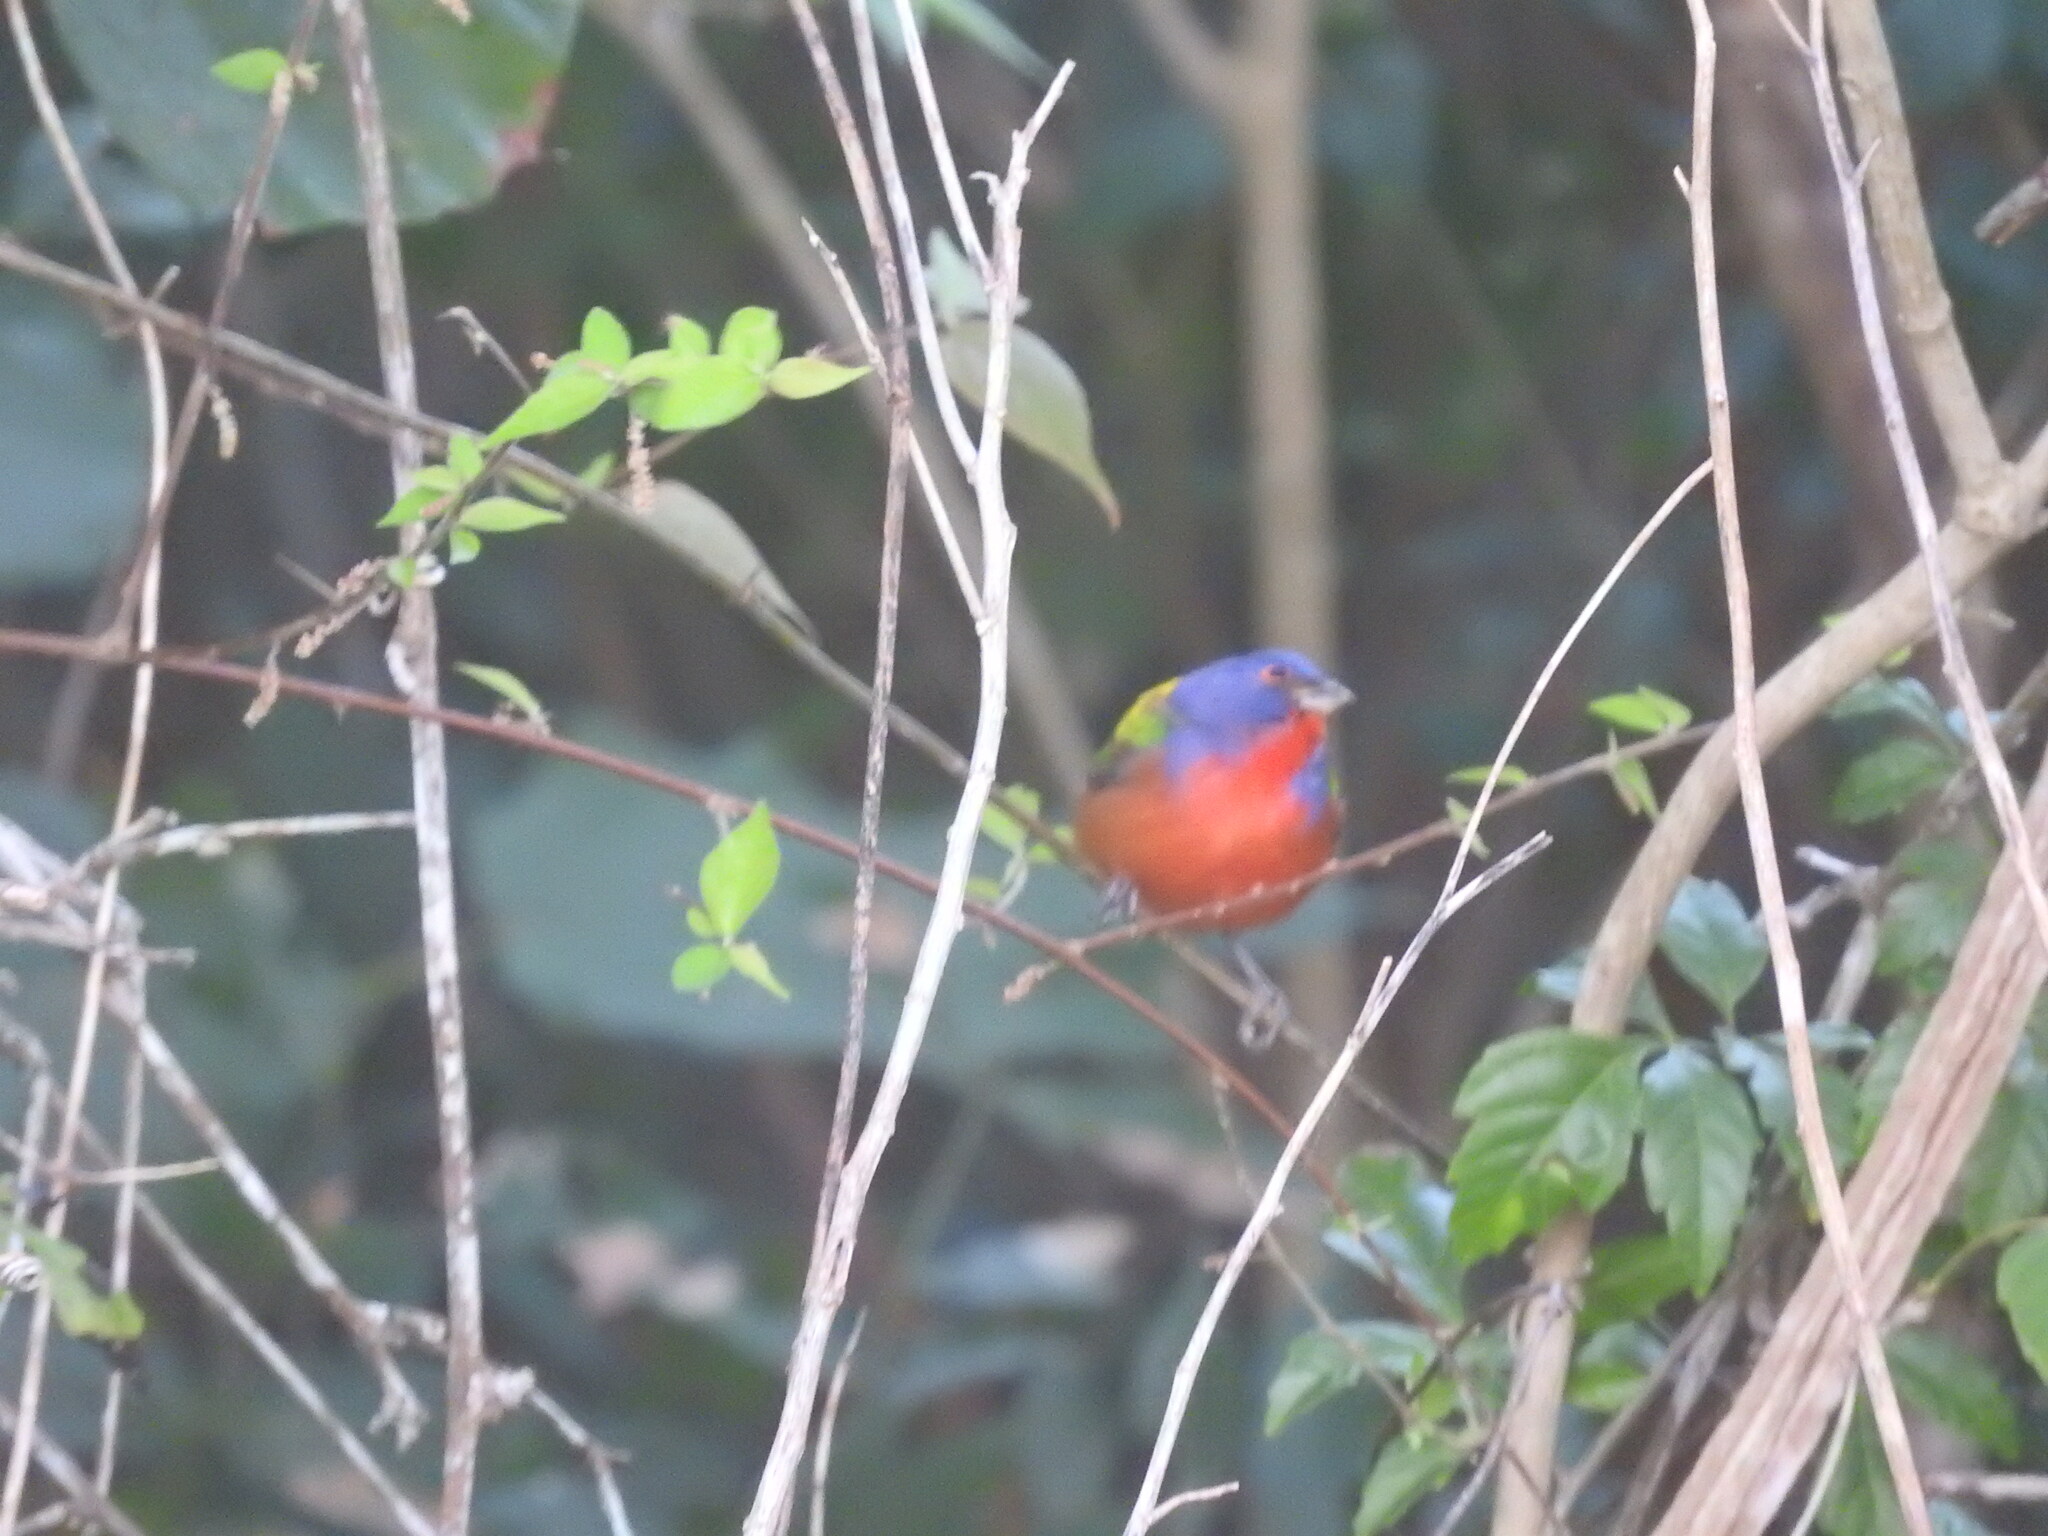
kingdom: Animalia
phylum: Chordata
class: Aves
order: Passeriformes
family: Cardinalidae
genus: Passerina
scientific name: Passerina ciris
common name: Painted bunting
